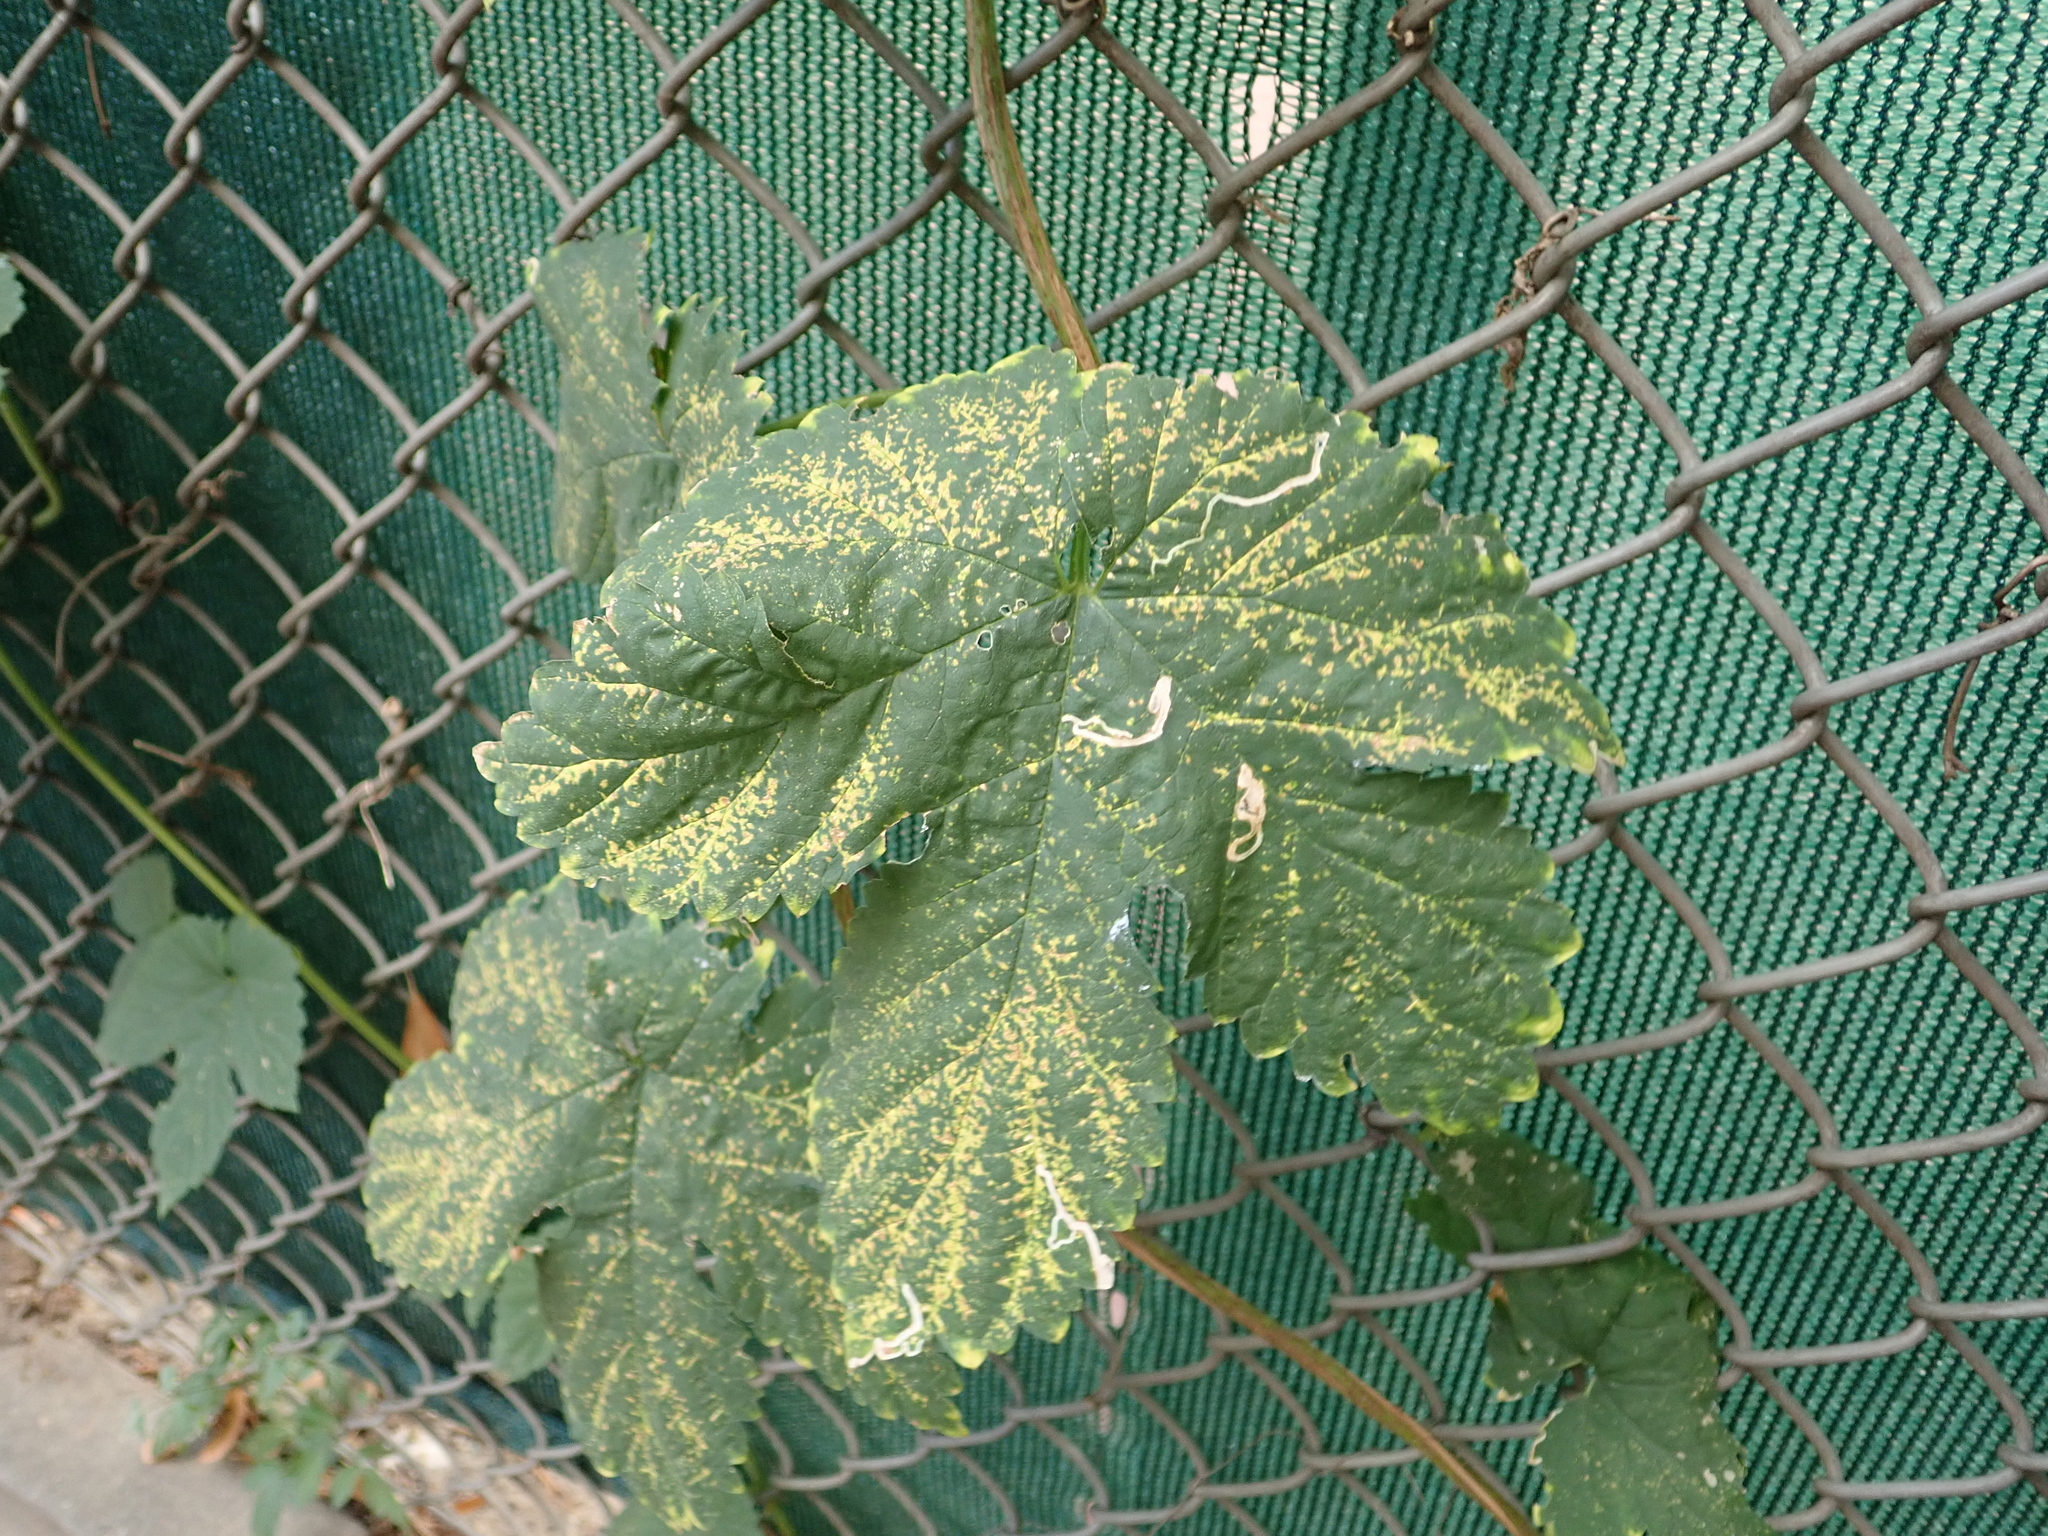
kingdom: Plantae
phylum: Tracheophyta
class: Magnoliopsida
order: Rosales
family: Cannabaceae
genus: Humulus
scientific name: Humulus lupulus
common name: Hop
